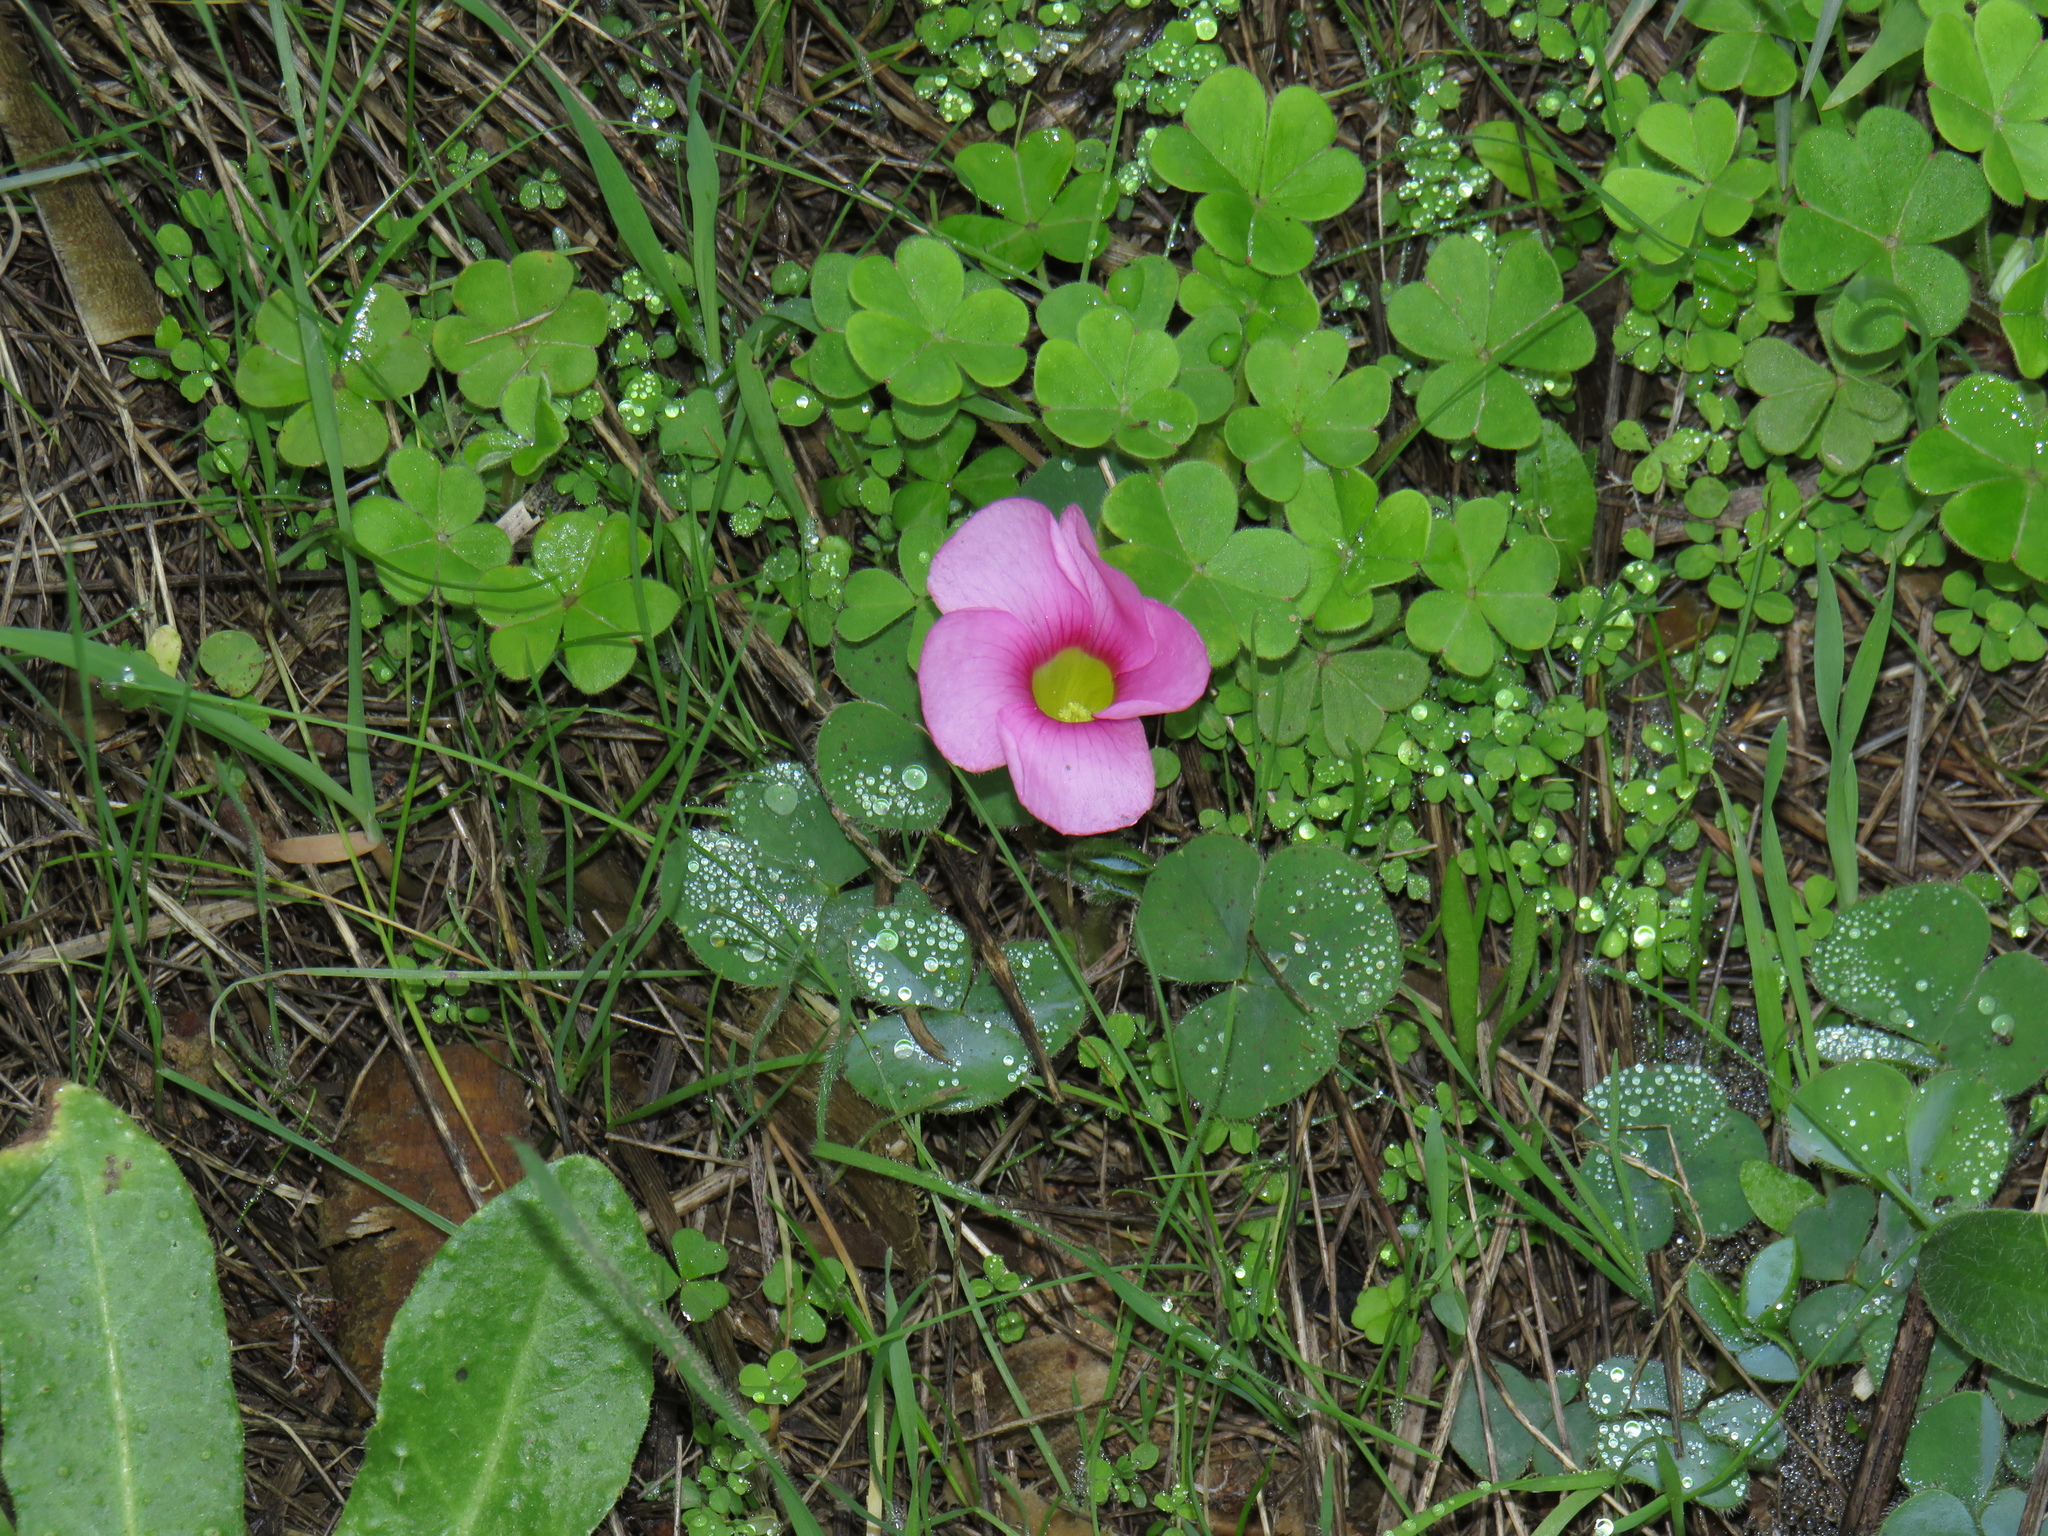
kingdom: Plantae
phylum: Tracheophyta
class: Magnoliopsida
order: Oxalidales
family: Oxalidaceae
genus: Oxalis
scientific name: Oxalis purpurea
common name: Purple woodsorrel
